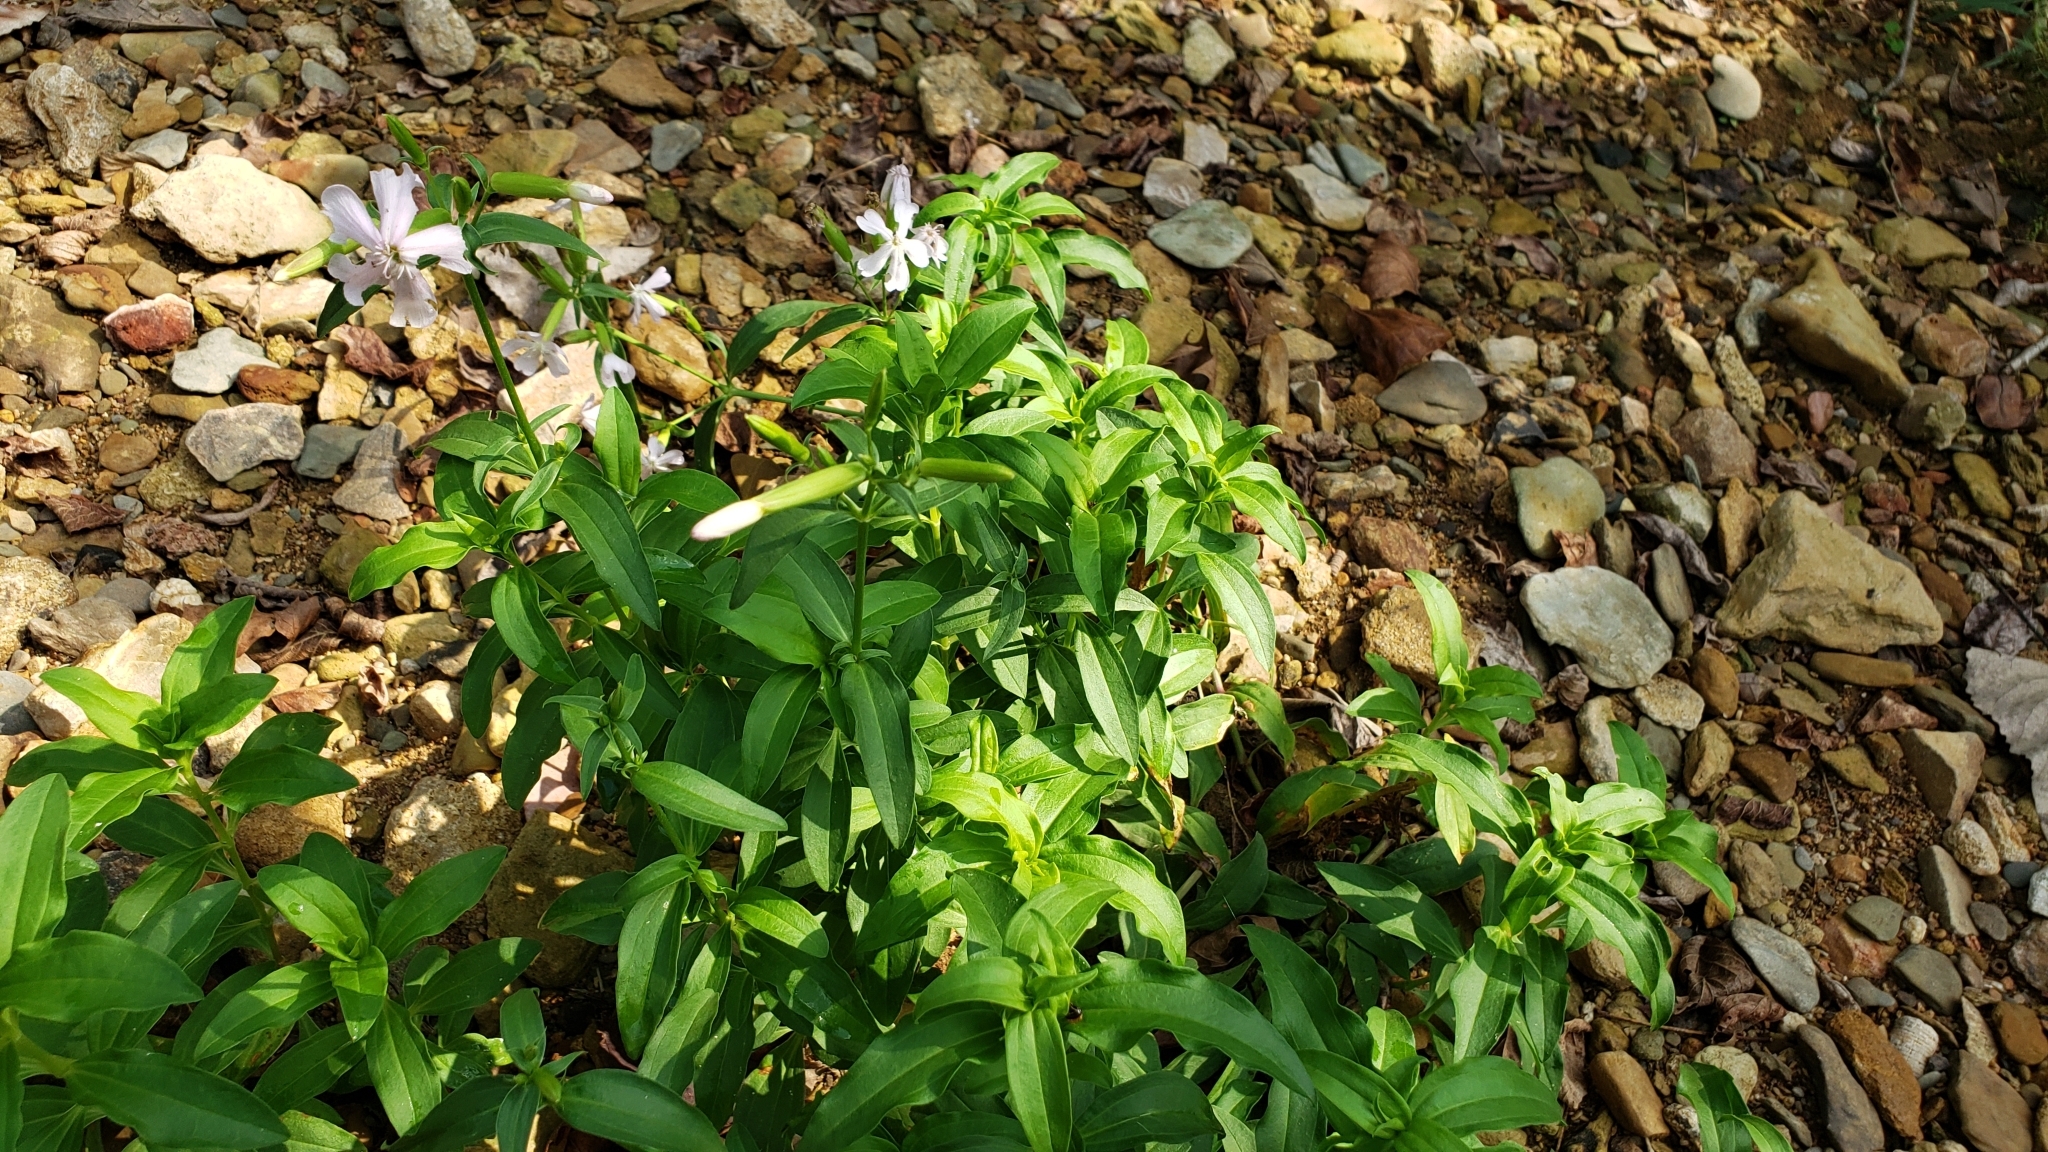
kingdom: Plantae
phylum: Tracheophyta
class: Magnoliopsida
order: Caryophyllales
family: Caryophyllaceae
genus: Saponaria
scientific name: Saponaria officinalis
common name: Soapwort
